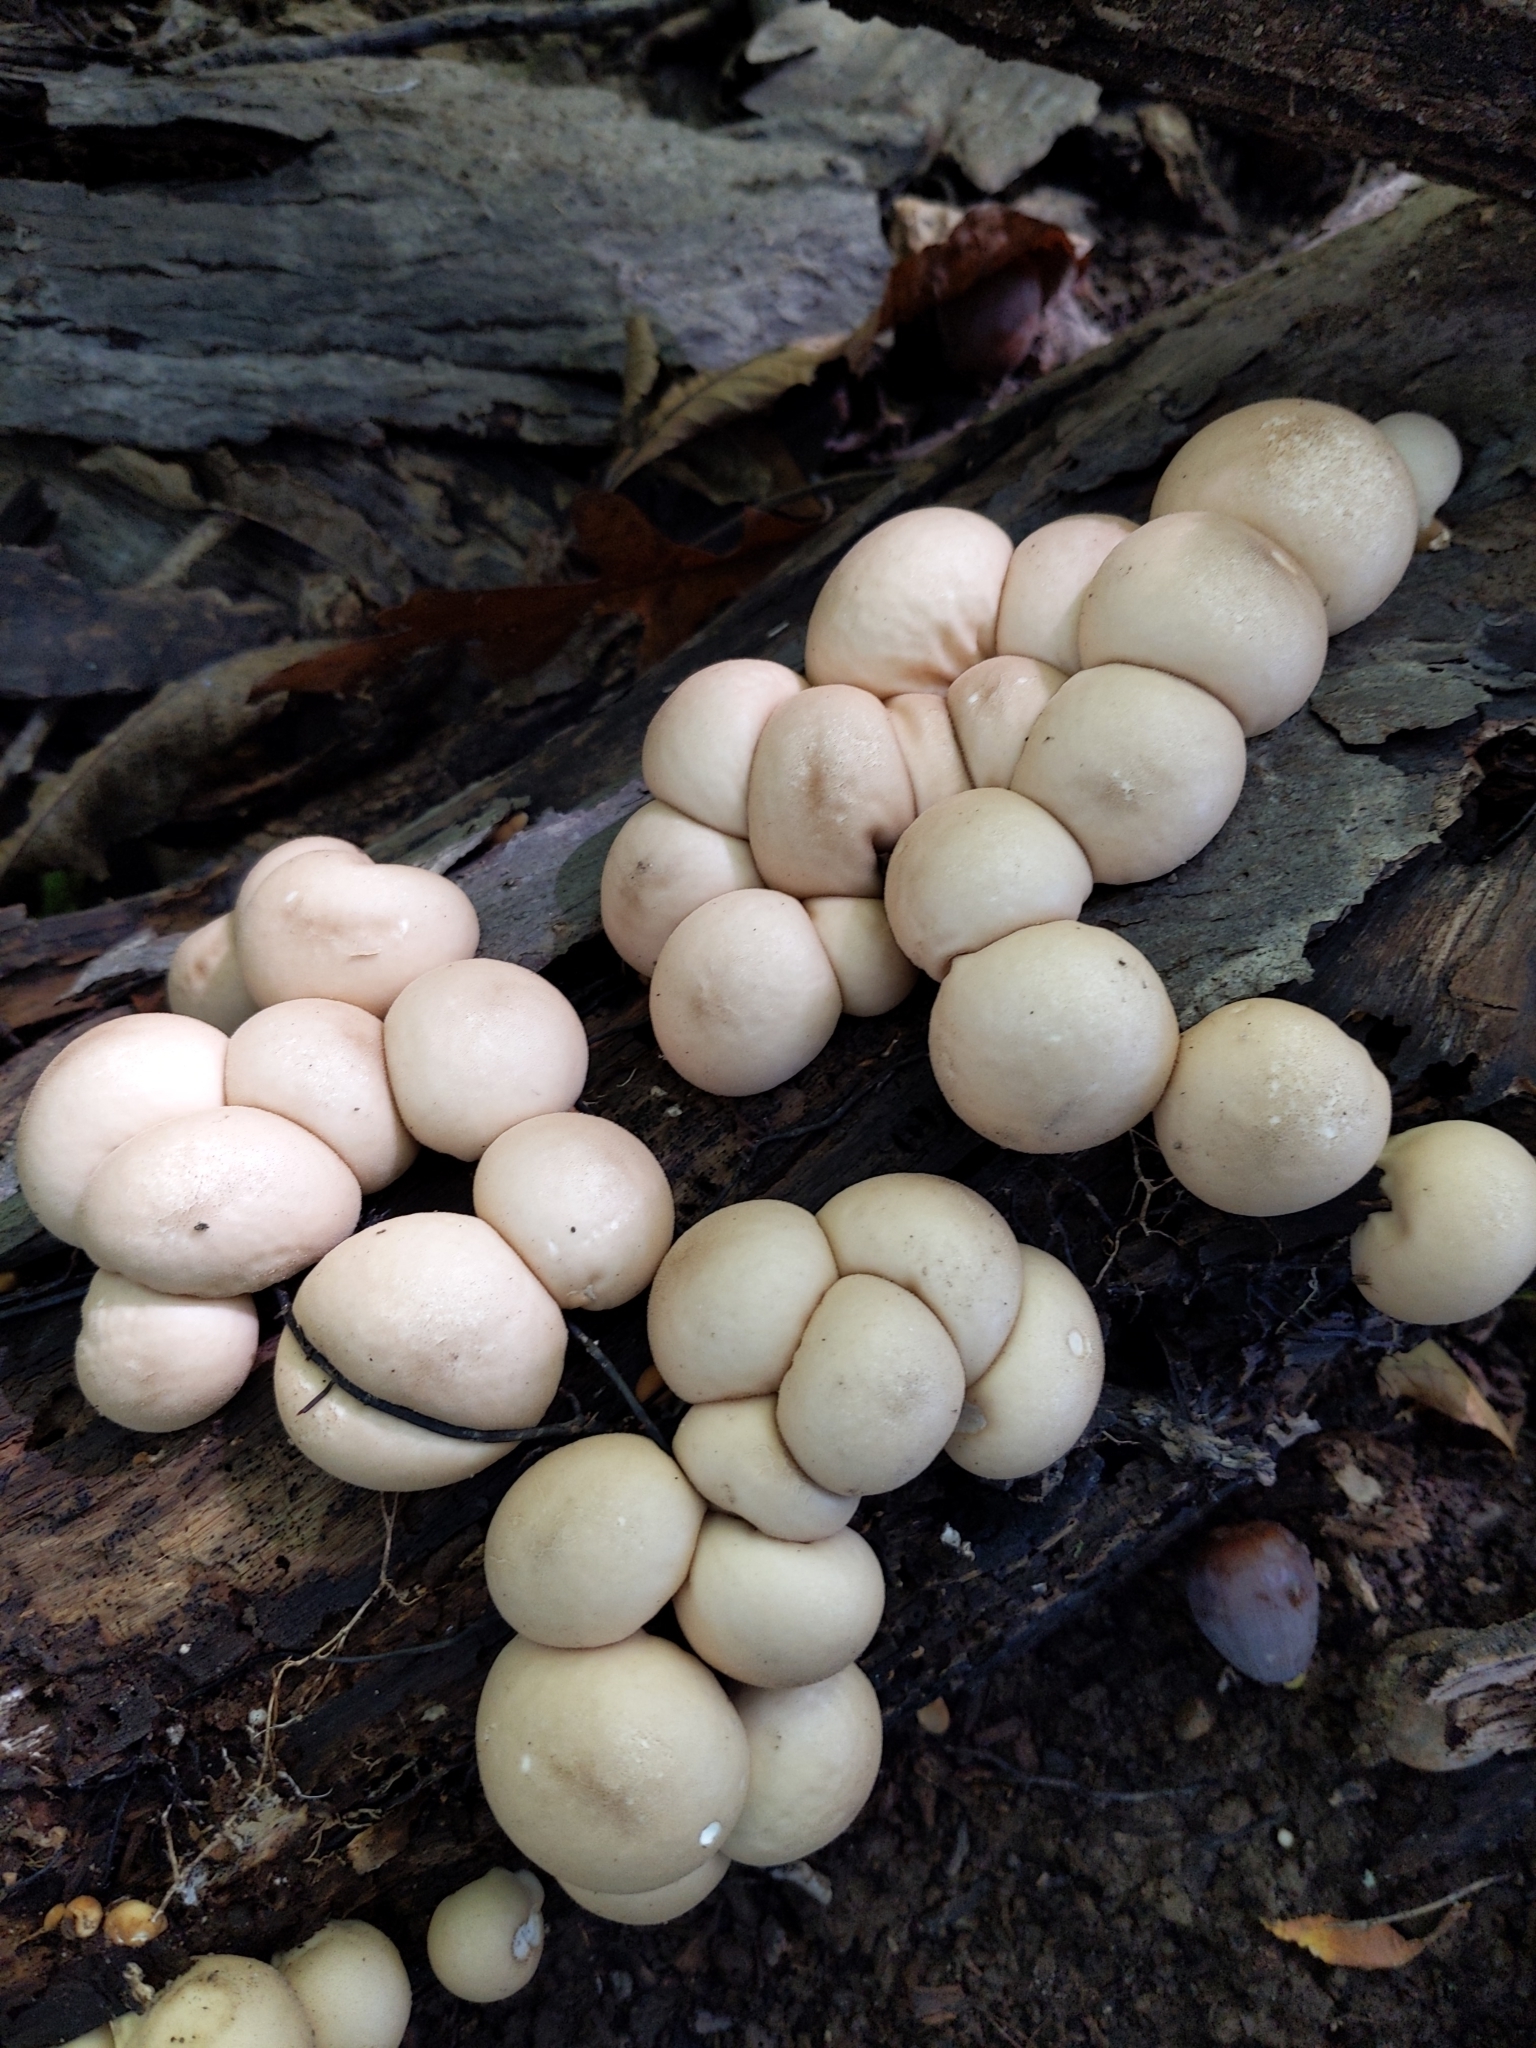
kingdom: Fungi
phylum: Basidiomycota
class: Agaricomycetes
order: Agaricales
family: Lycoperdaceae
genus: Apioperdon
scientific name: Apioperdon pyriforme
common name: Pear-shaped puffball
